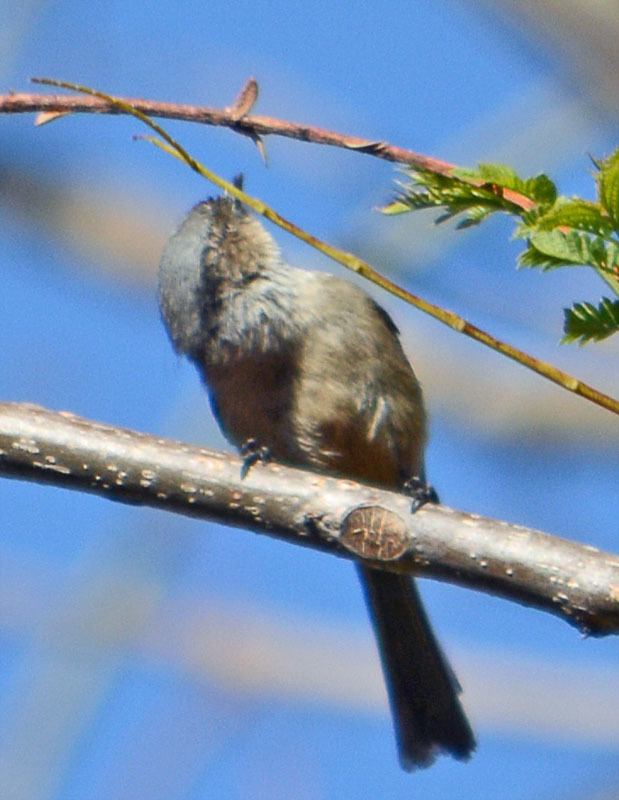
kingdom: Animalia
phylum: Chordata
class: Aves
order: Passeriformes
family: Aegithalidae
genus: Psaltriparus
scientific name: Psaltriparus minimus
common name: American bushtit
